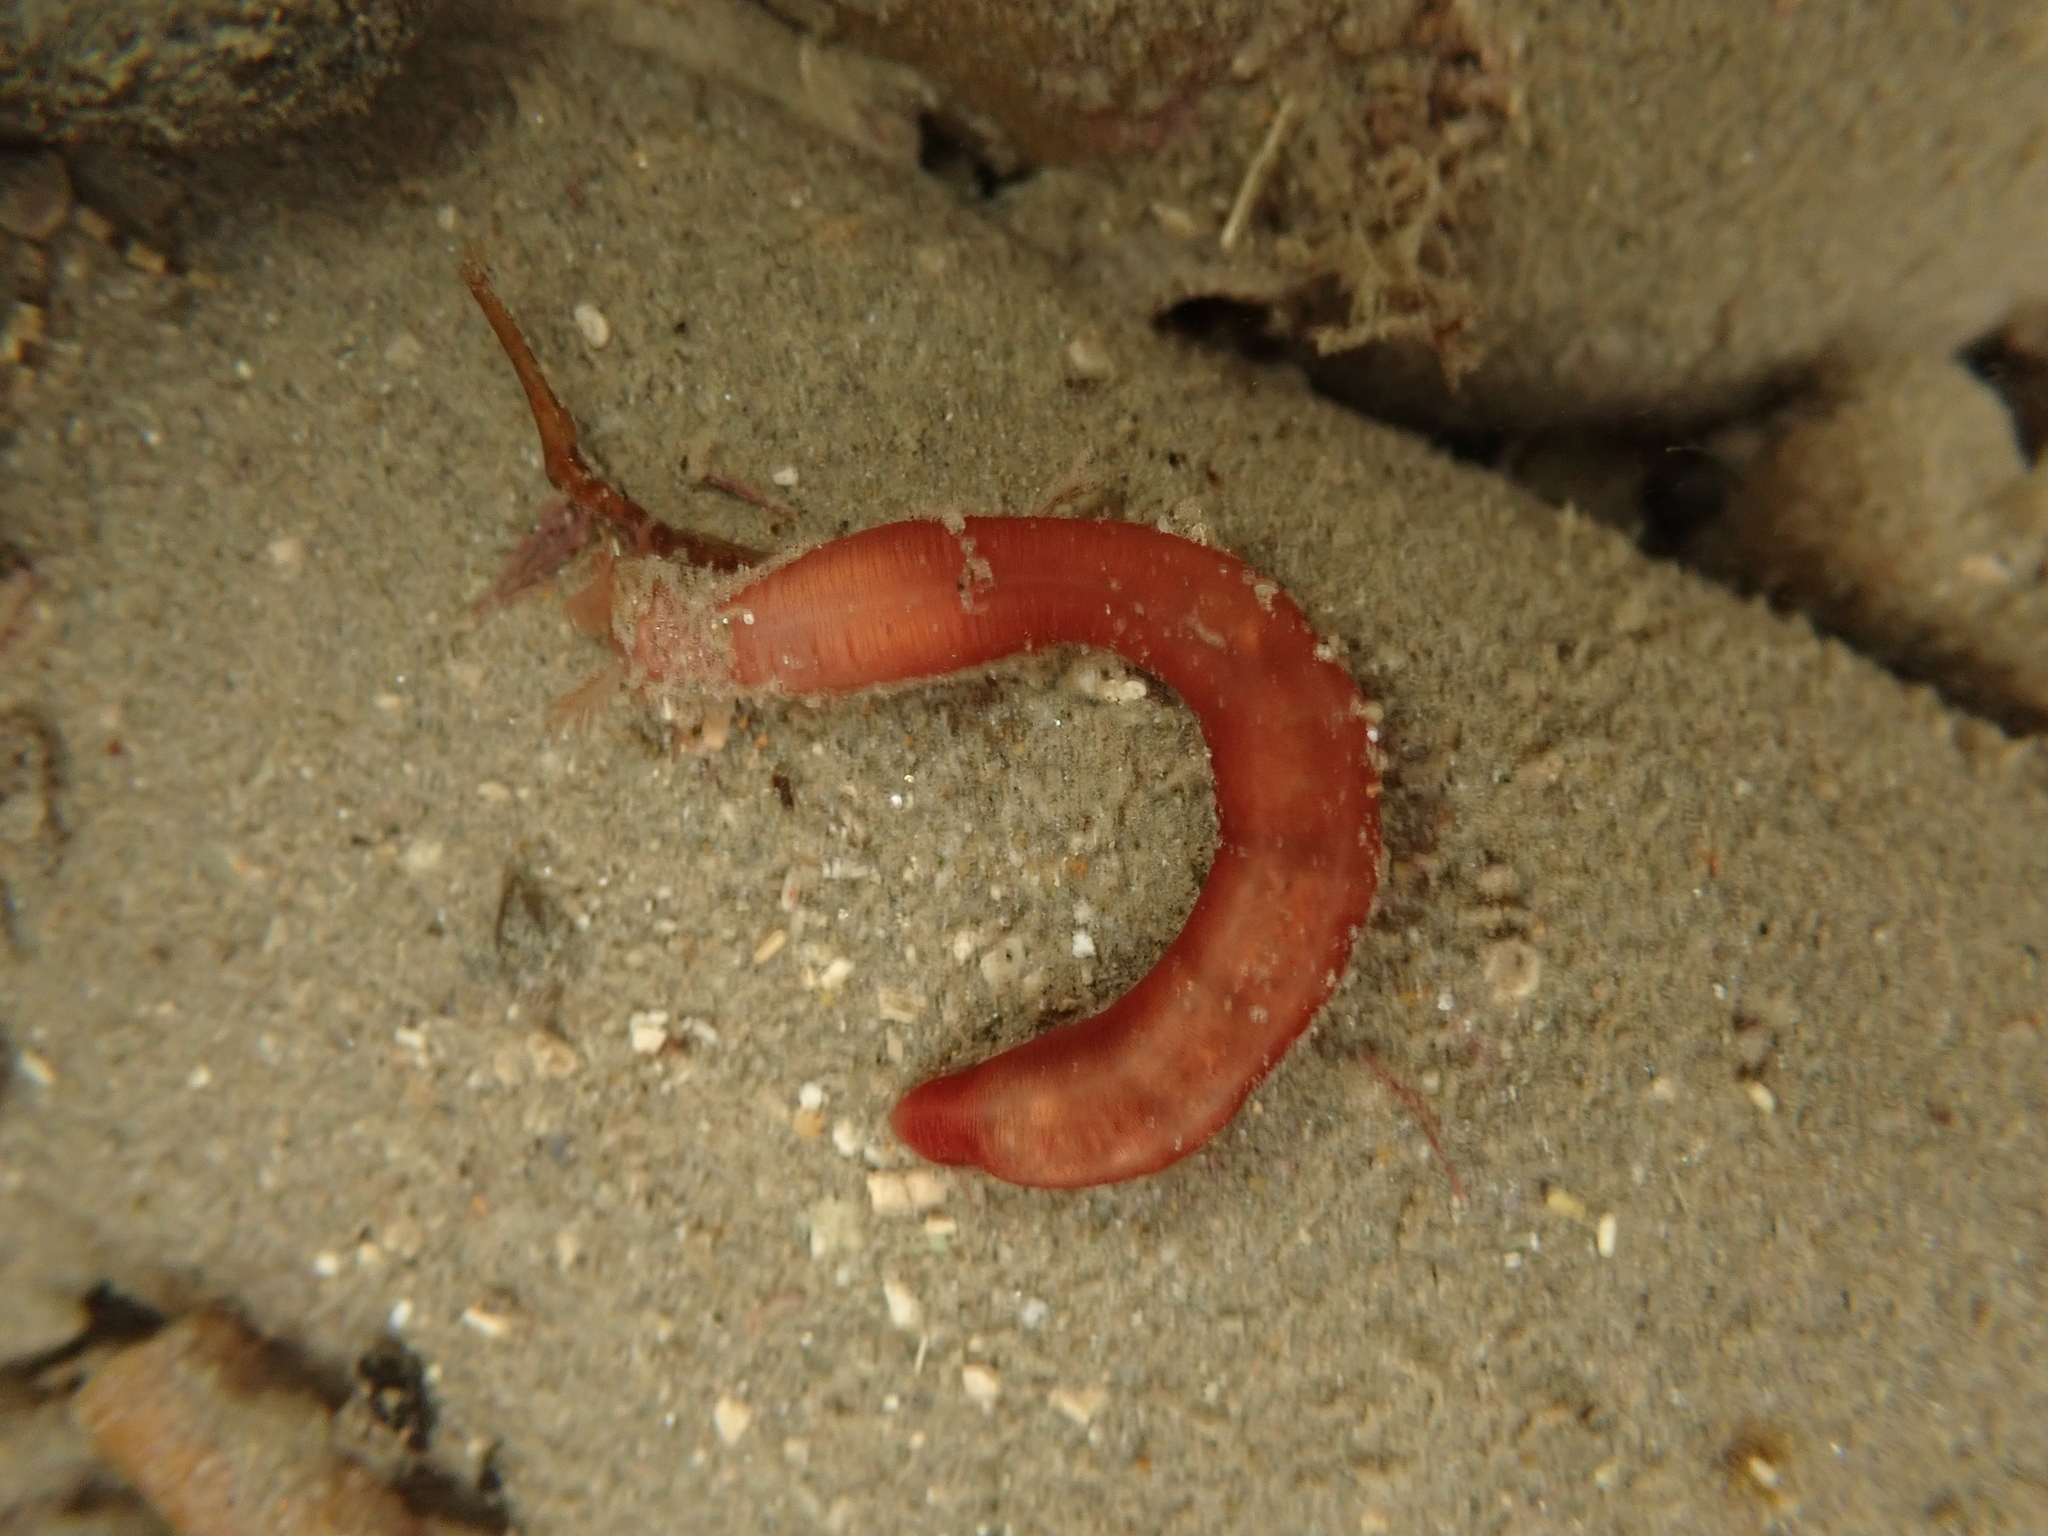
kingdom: Animalia
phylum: Echinodermata
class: Holothuroidea
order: Apodida
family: Chiridotidae
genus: Taeniogyrus
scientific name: Taeniogyrus dunedinensis
